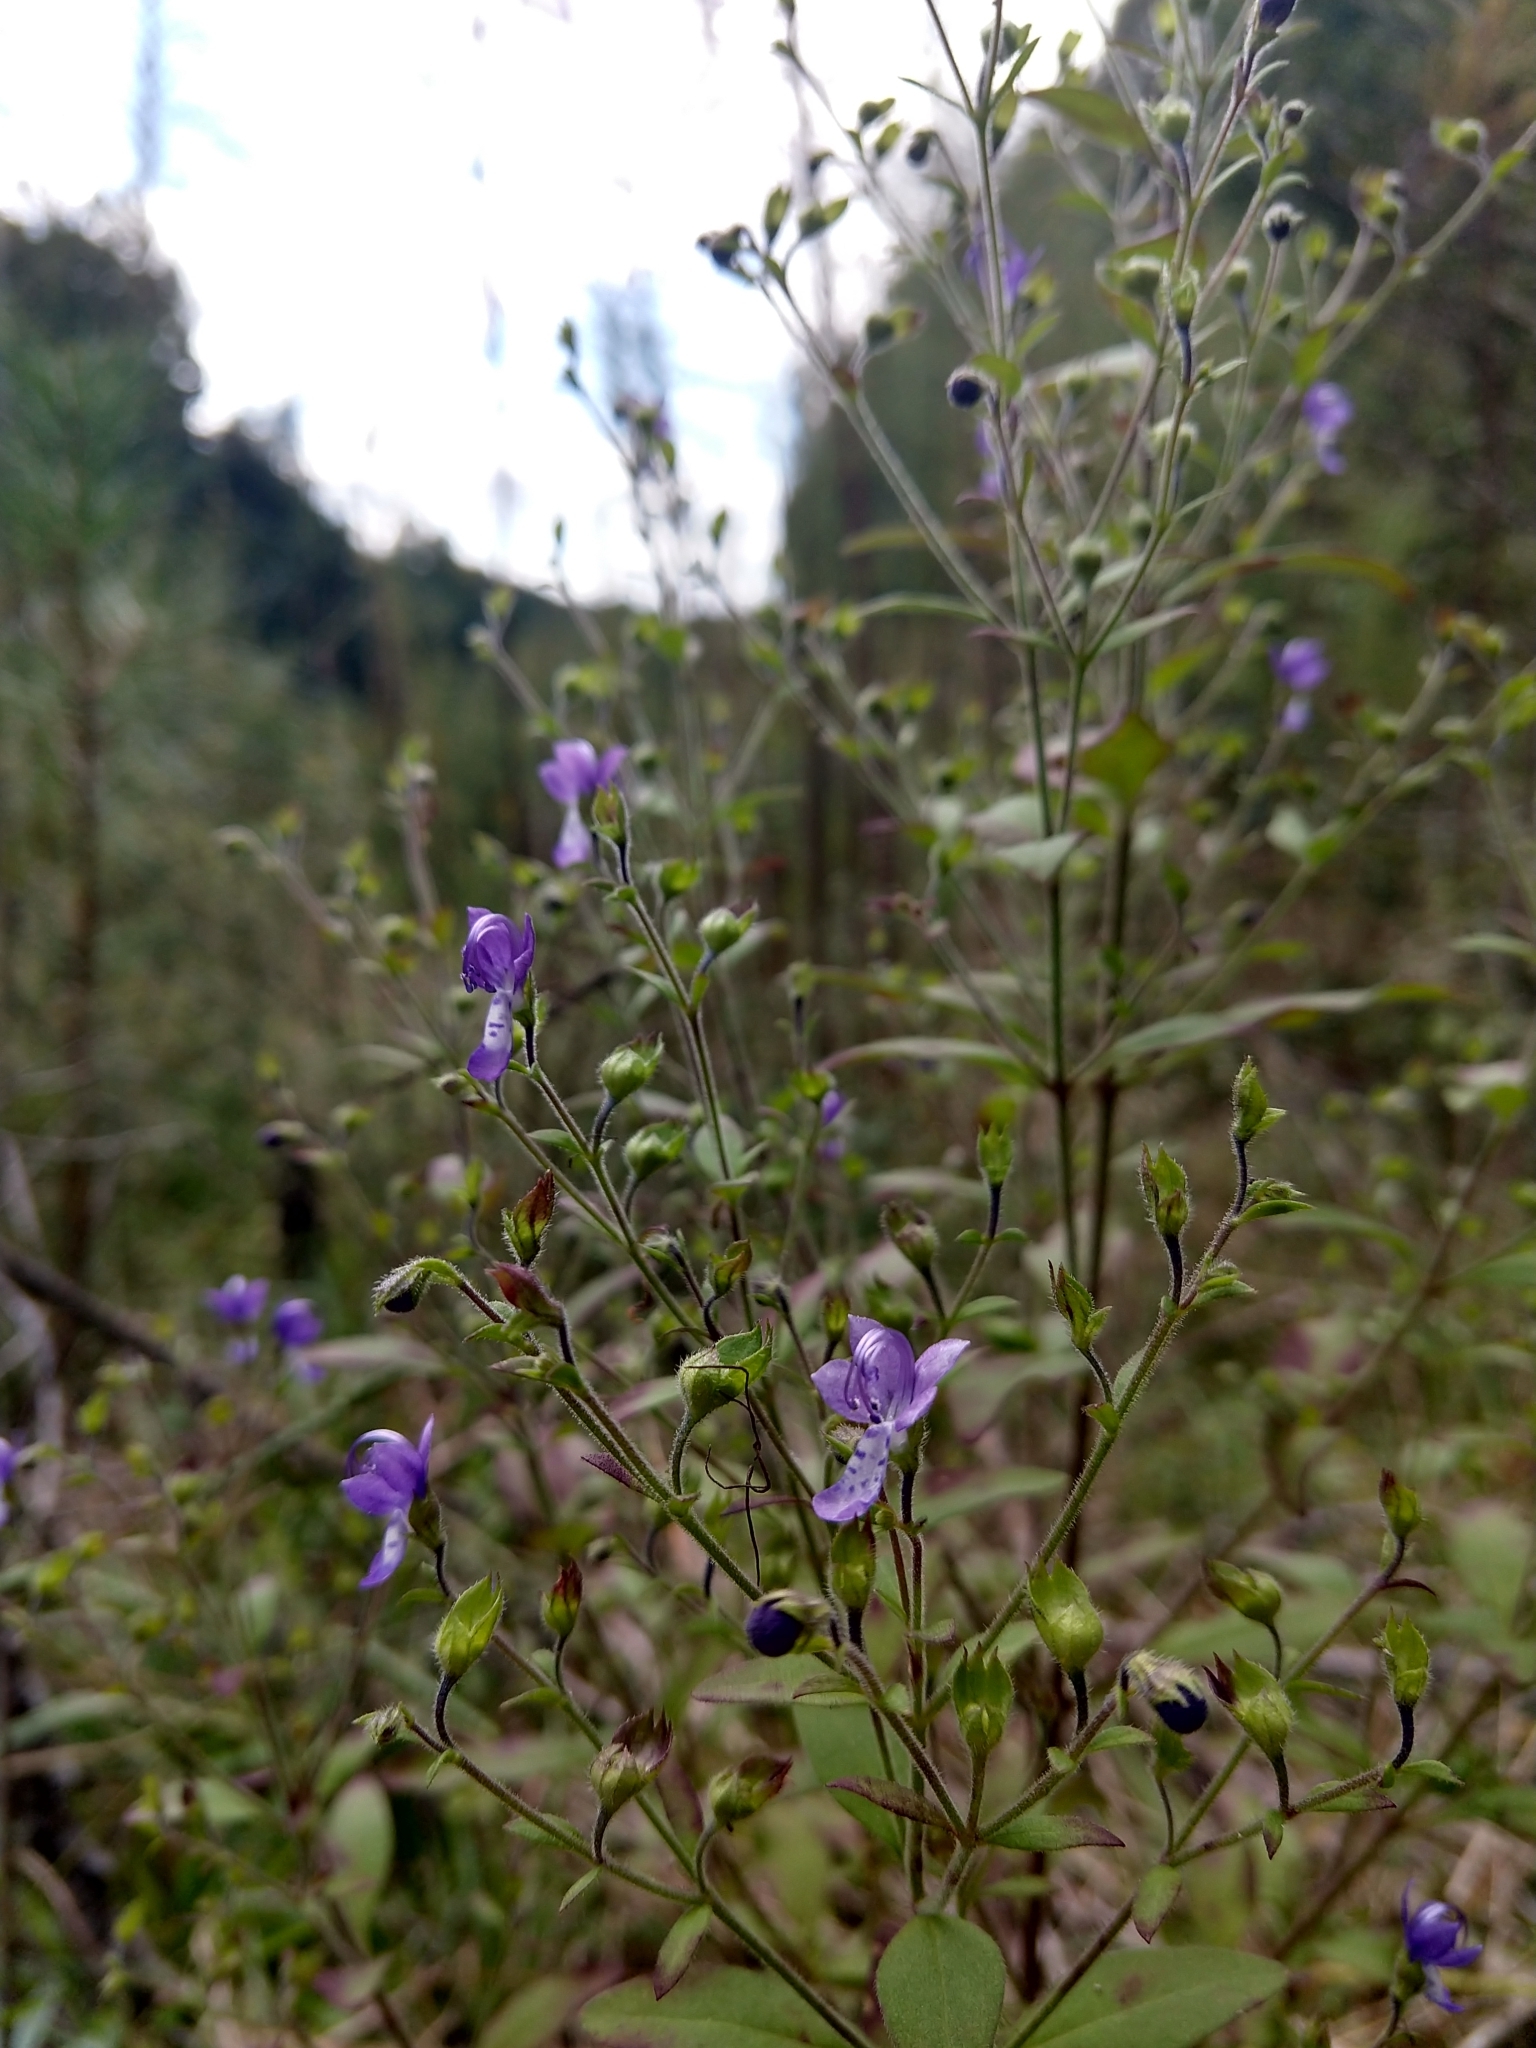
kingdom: Plantae
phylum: Tracheophyta
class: Magnoliopsida
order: Lamiales
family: Lamiaceae
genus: Trichostema
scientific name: Trichostema dichotomum
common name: Bastard pennyroyal
